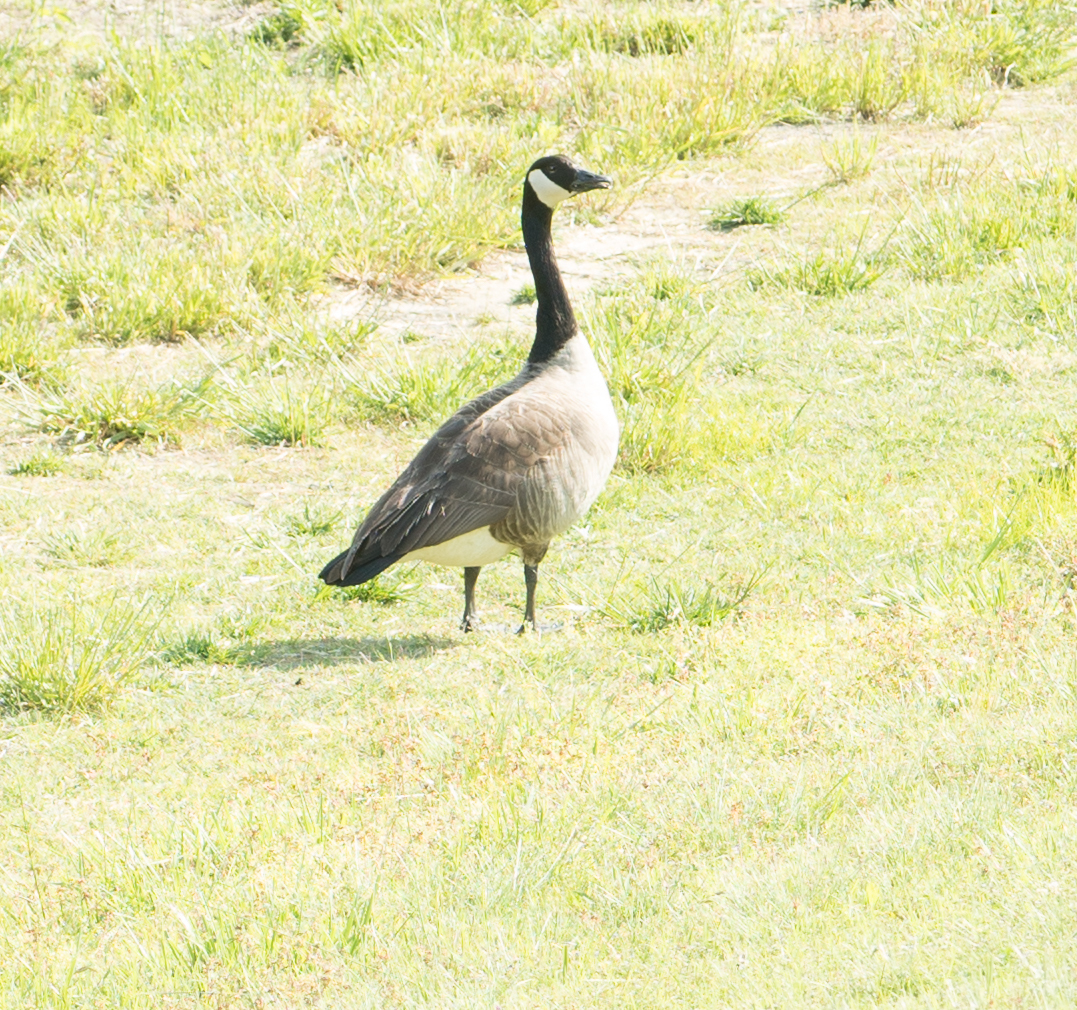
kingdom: Animalia
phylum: Chordata
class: Aves
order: Anseriformes
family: Anatidae
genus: Branta
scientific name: Branta canadensis
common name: Canada goose
